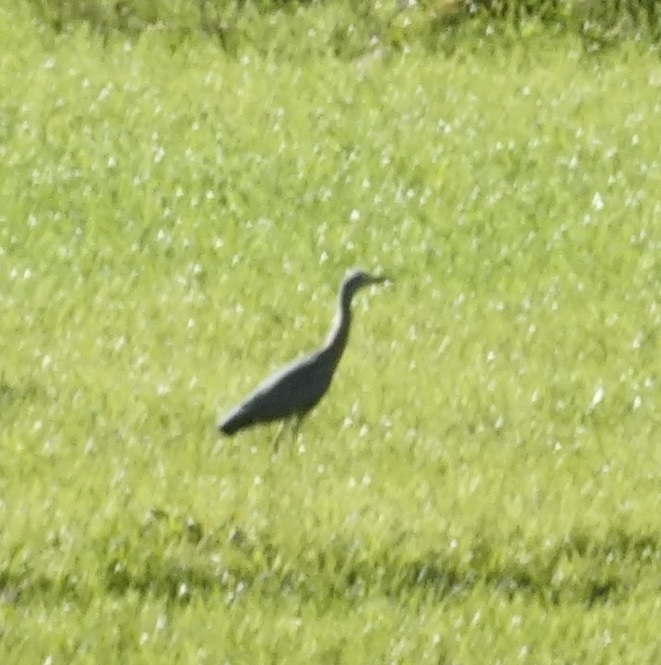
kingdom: Animalia
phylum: Chordata
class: Aves
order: Pelecaniformes
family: Ardeidae
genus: Egretta
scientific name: Egretta novaehollandiae
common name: White-faced heron
